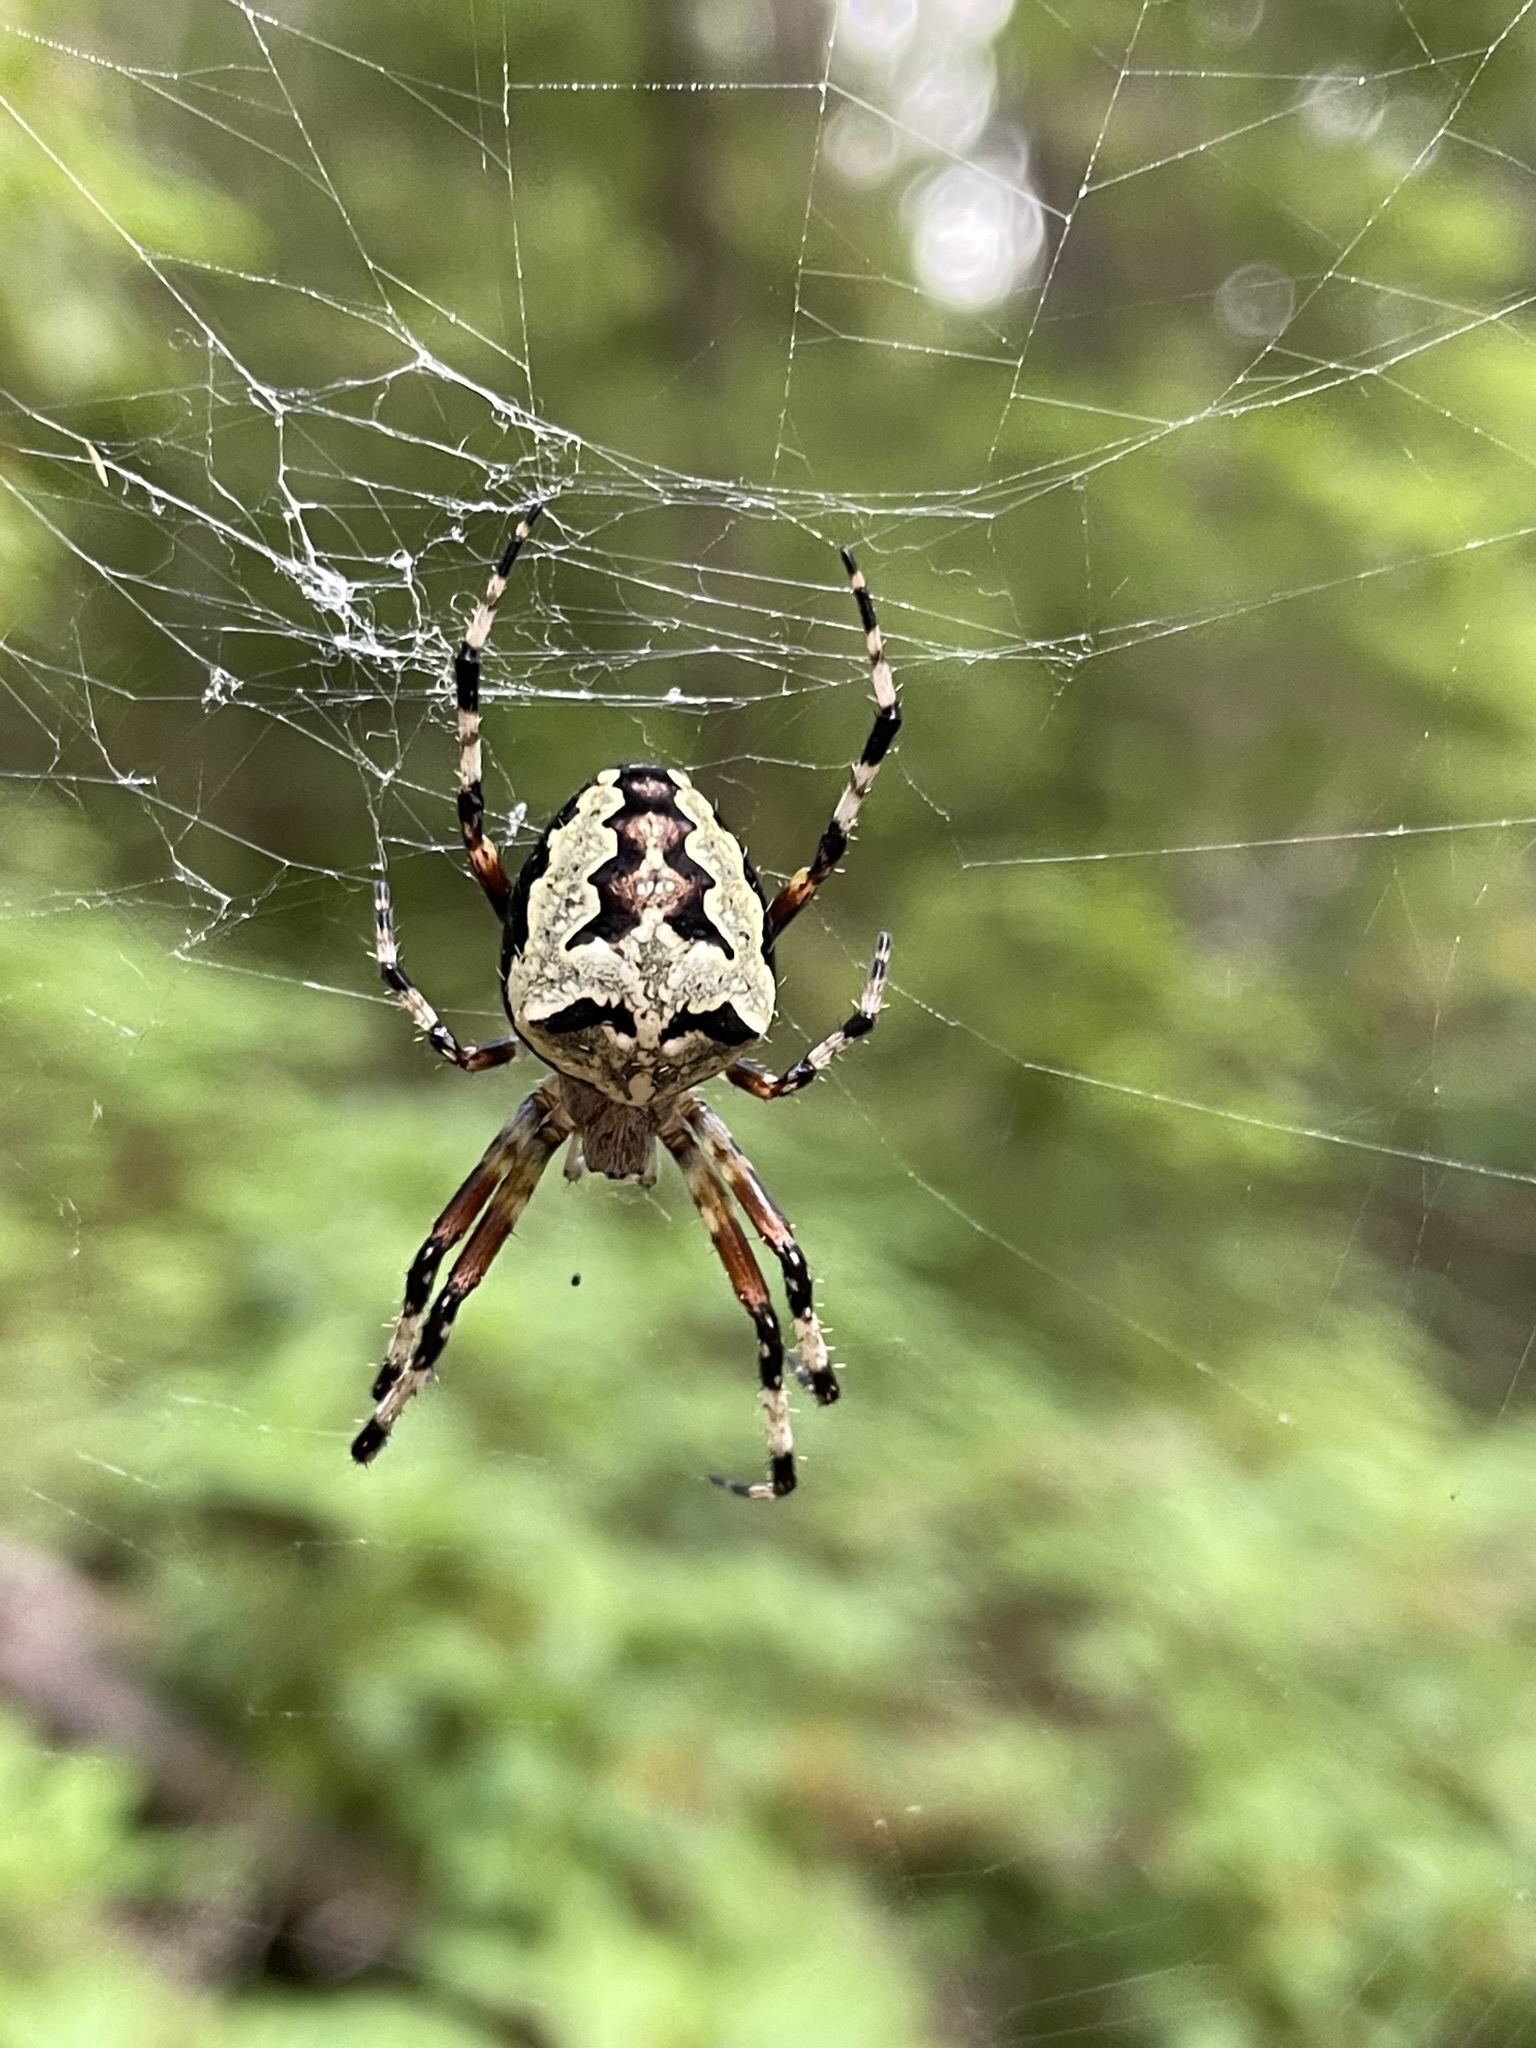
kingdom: Animalia
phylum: Arthropoda
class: Arachnida
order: Araneae
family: Araneidae
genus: Araneus
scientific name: Araneus nordmanni
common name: Nordmann's orbweaver
